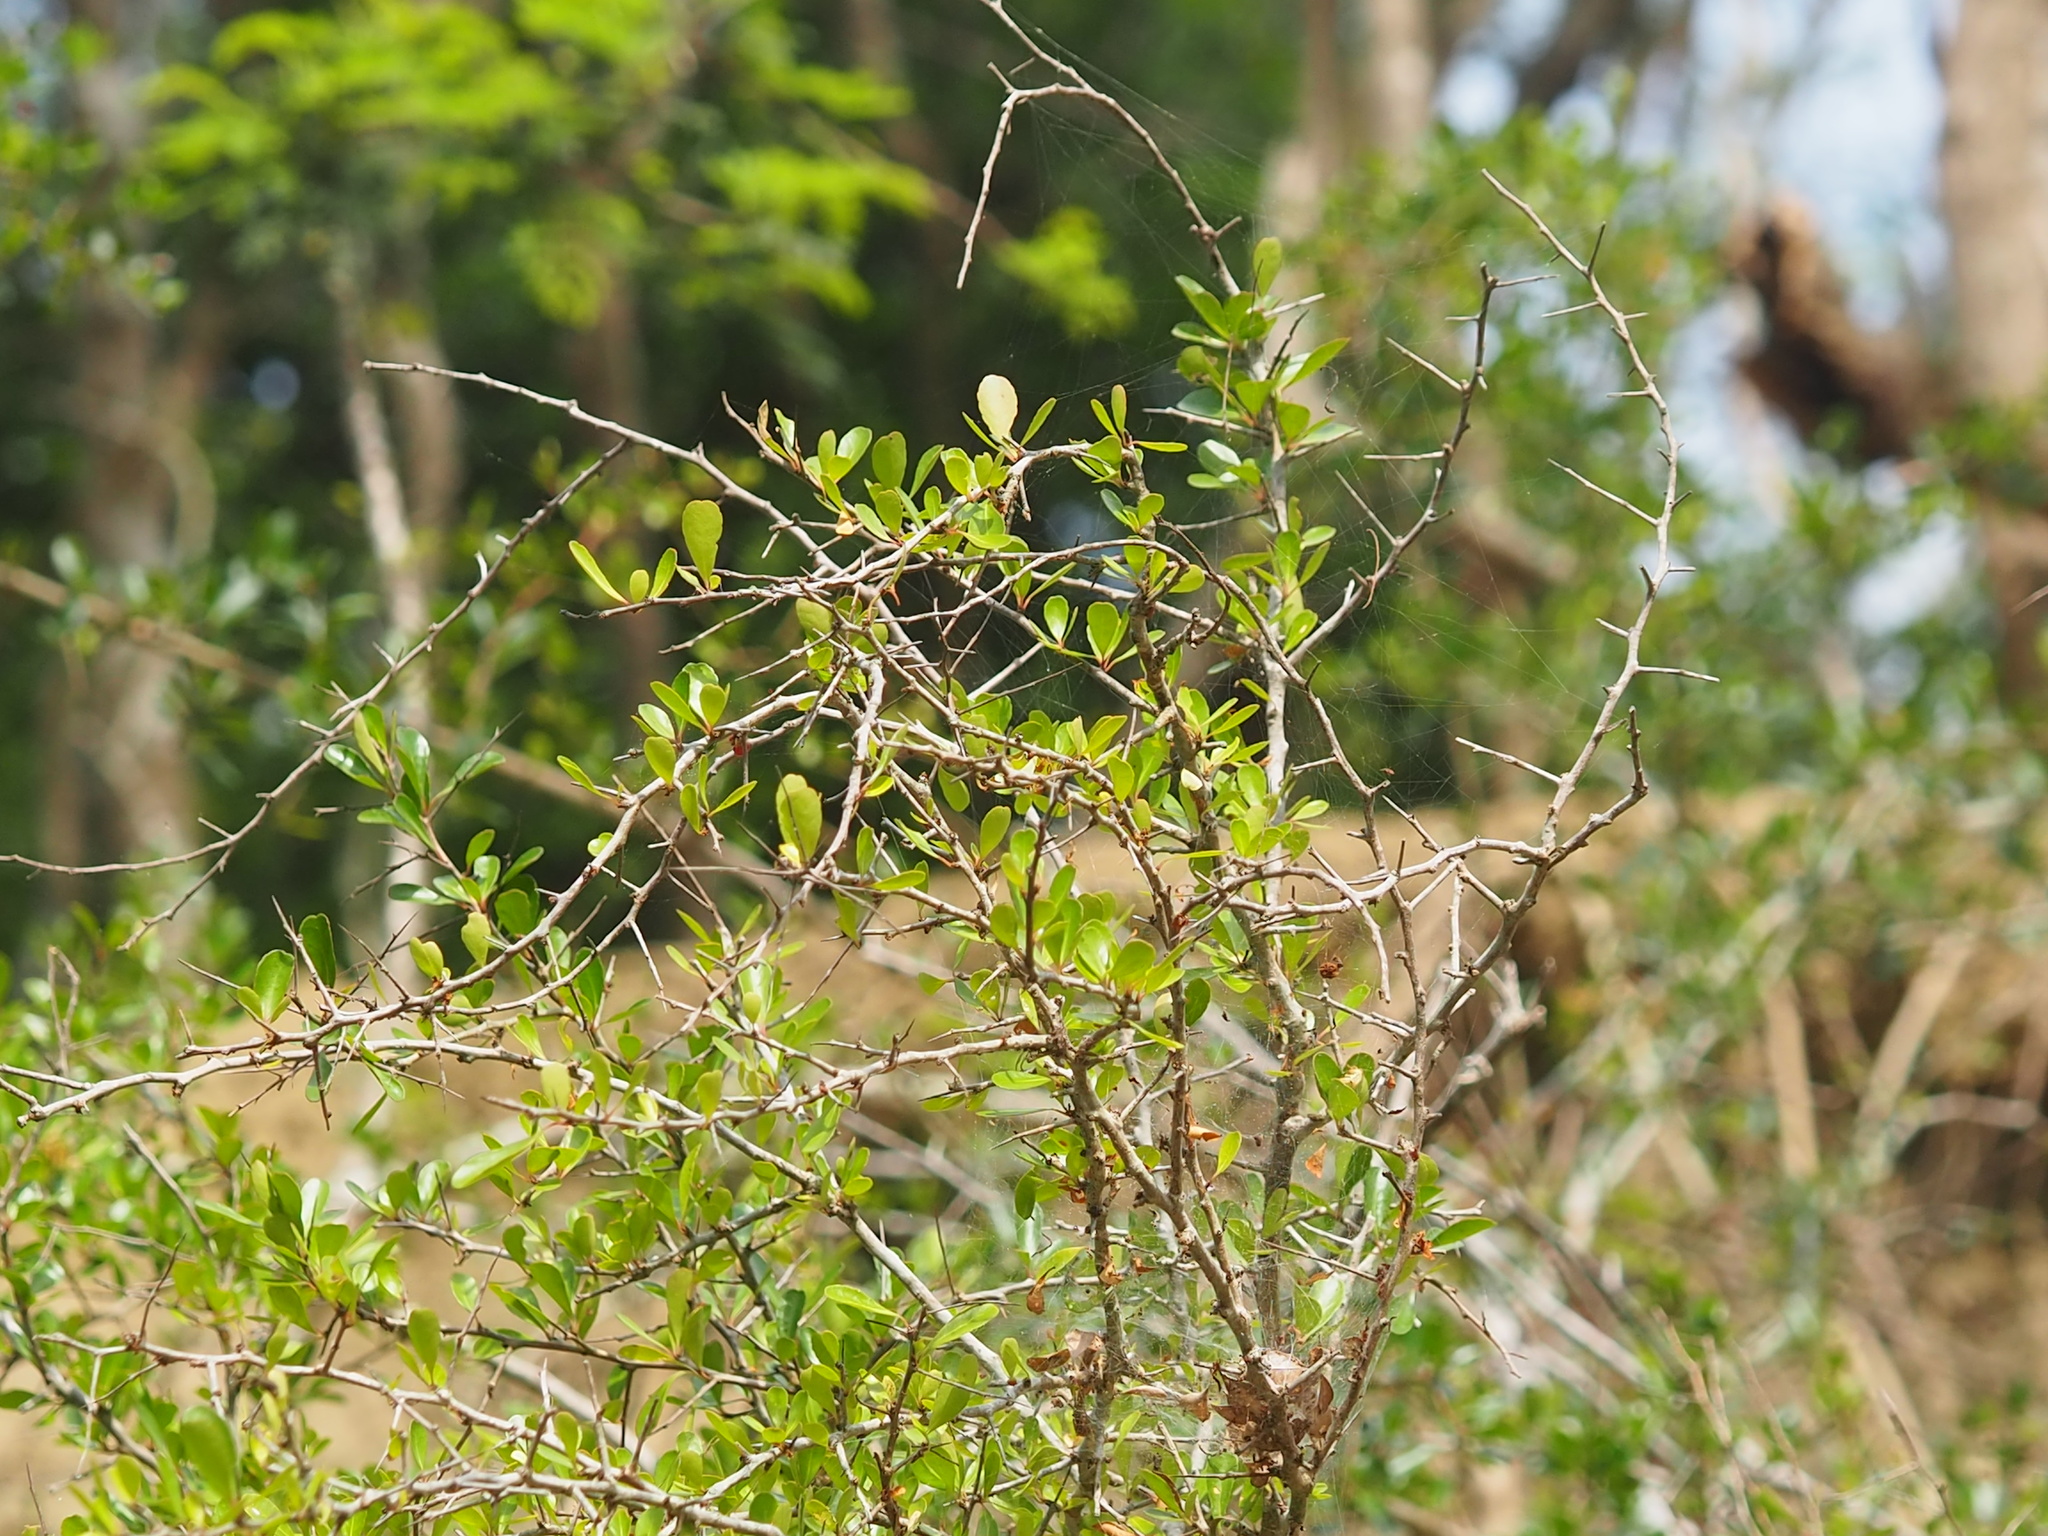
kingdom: Plantae
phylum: Tracheophyta
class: Magnoliopsida
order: Celastrales
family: Celastraceae
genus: Gymnosporia
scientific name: Gymnosporia diversifolia
